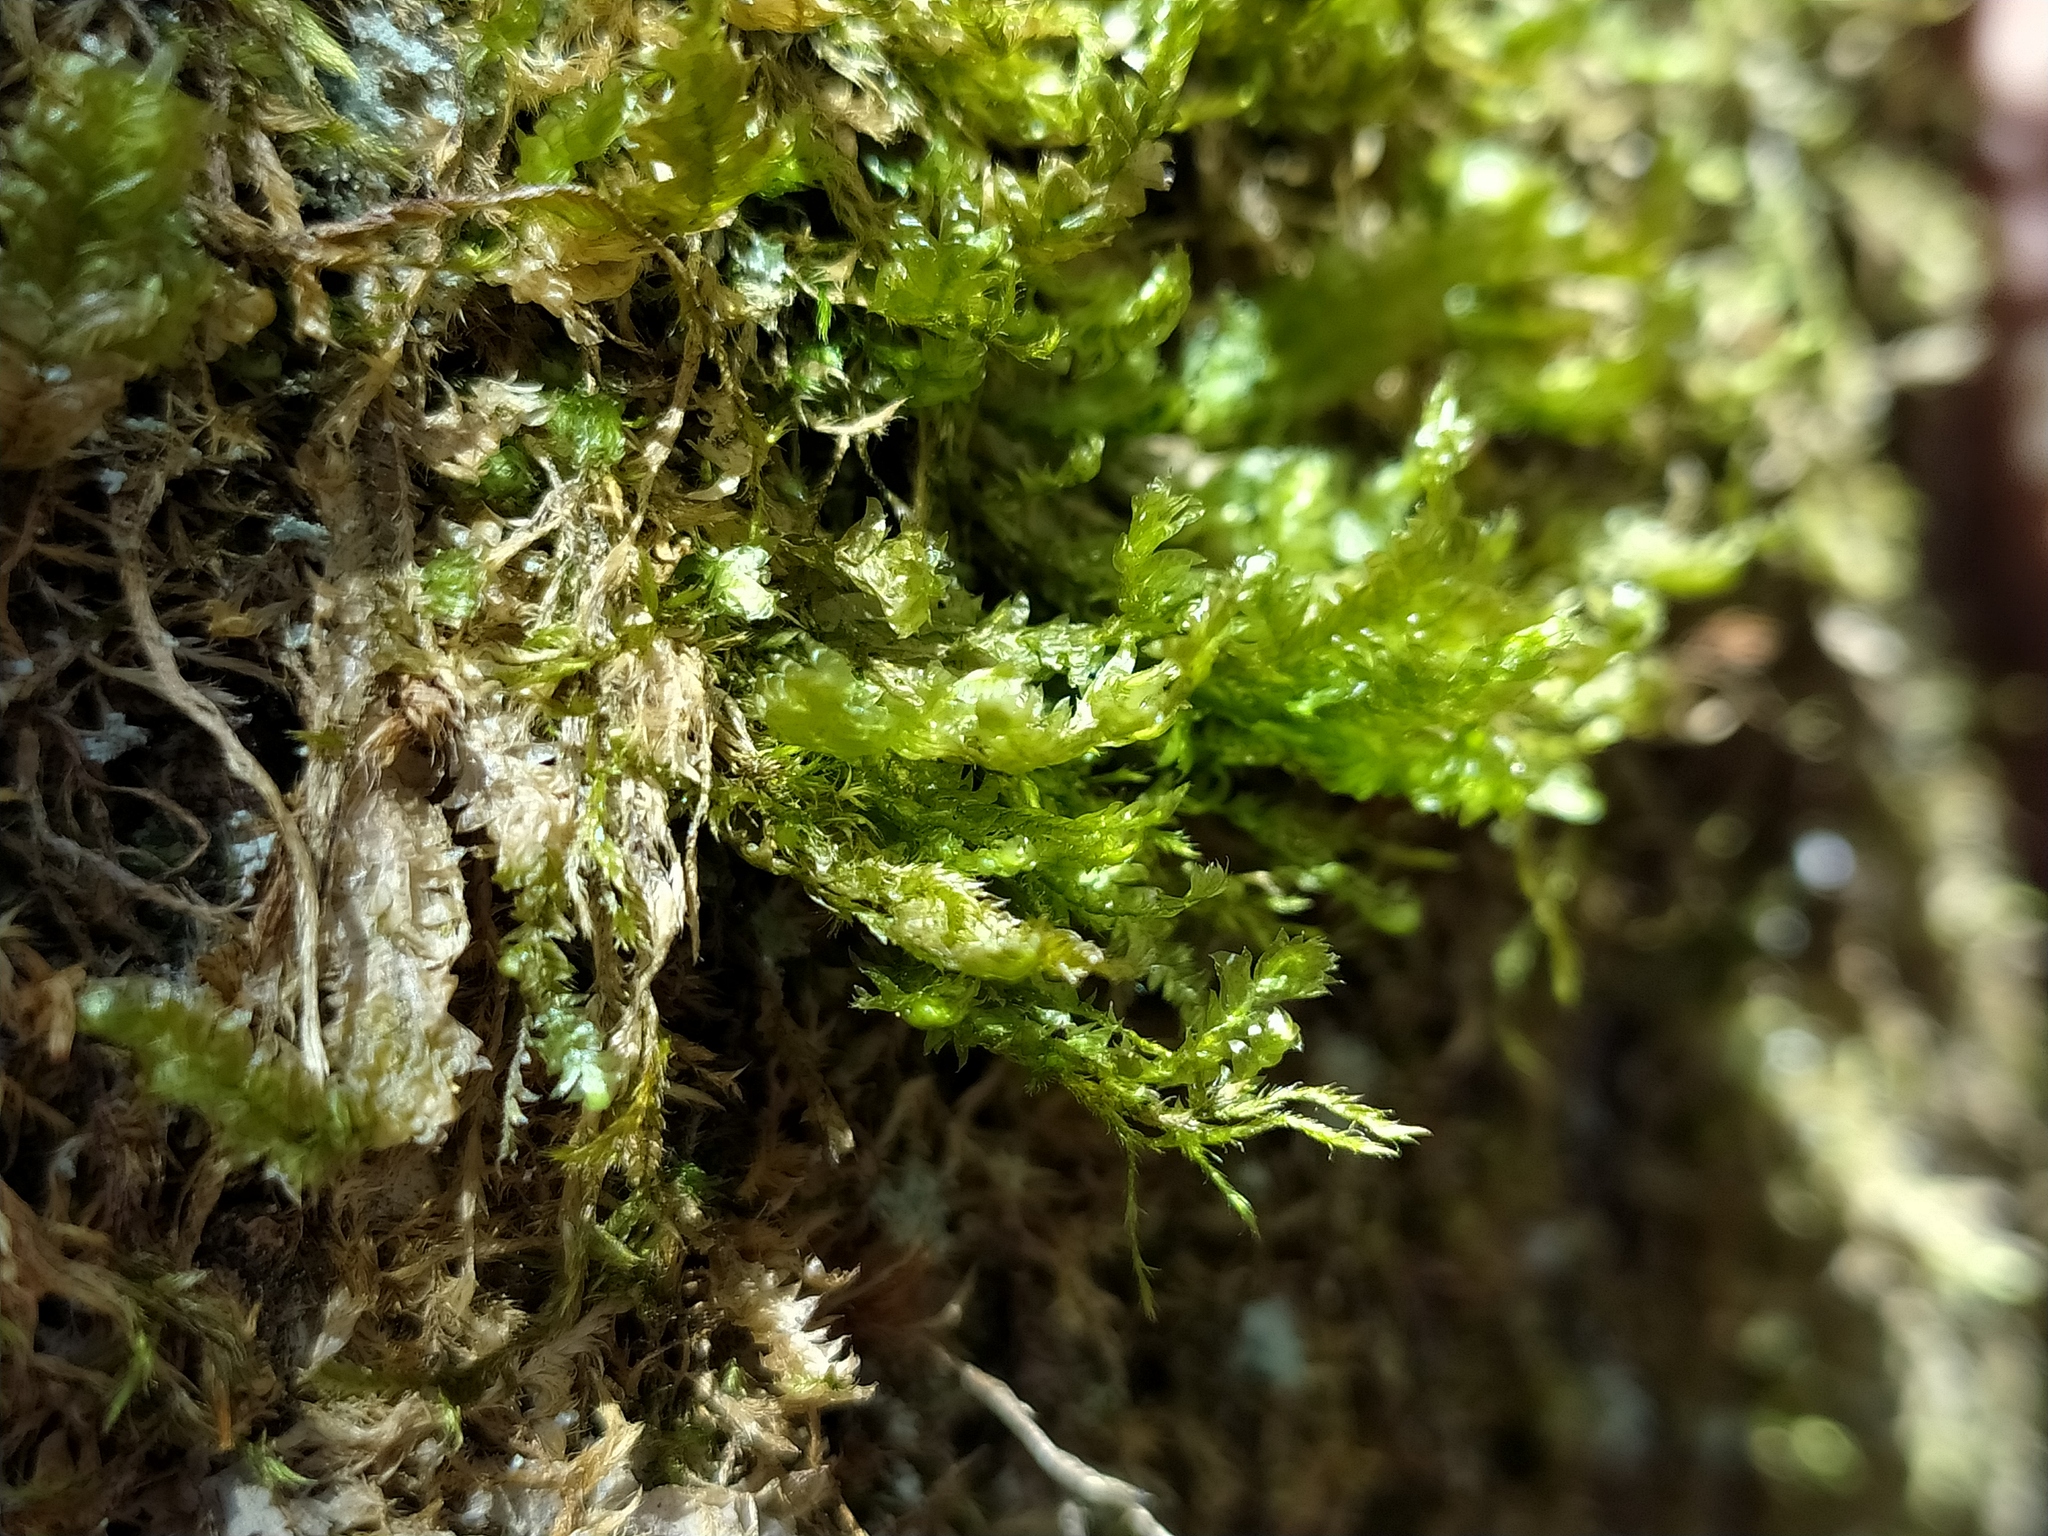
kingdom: Plantae
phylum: Bryophyta
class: Bryopsida
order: Hypnales
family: Neckeraceae
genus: Exsertotheca
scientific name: Exsertotheca crispa
